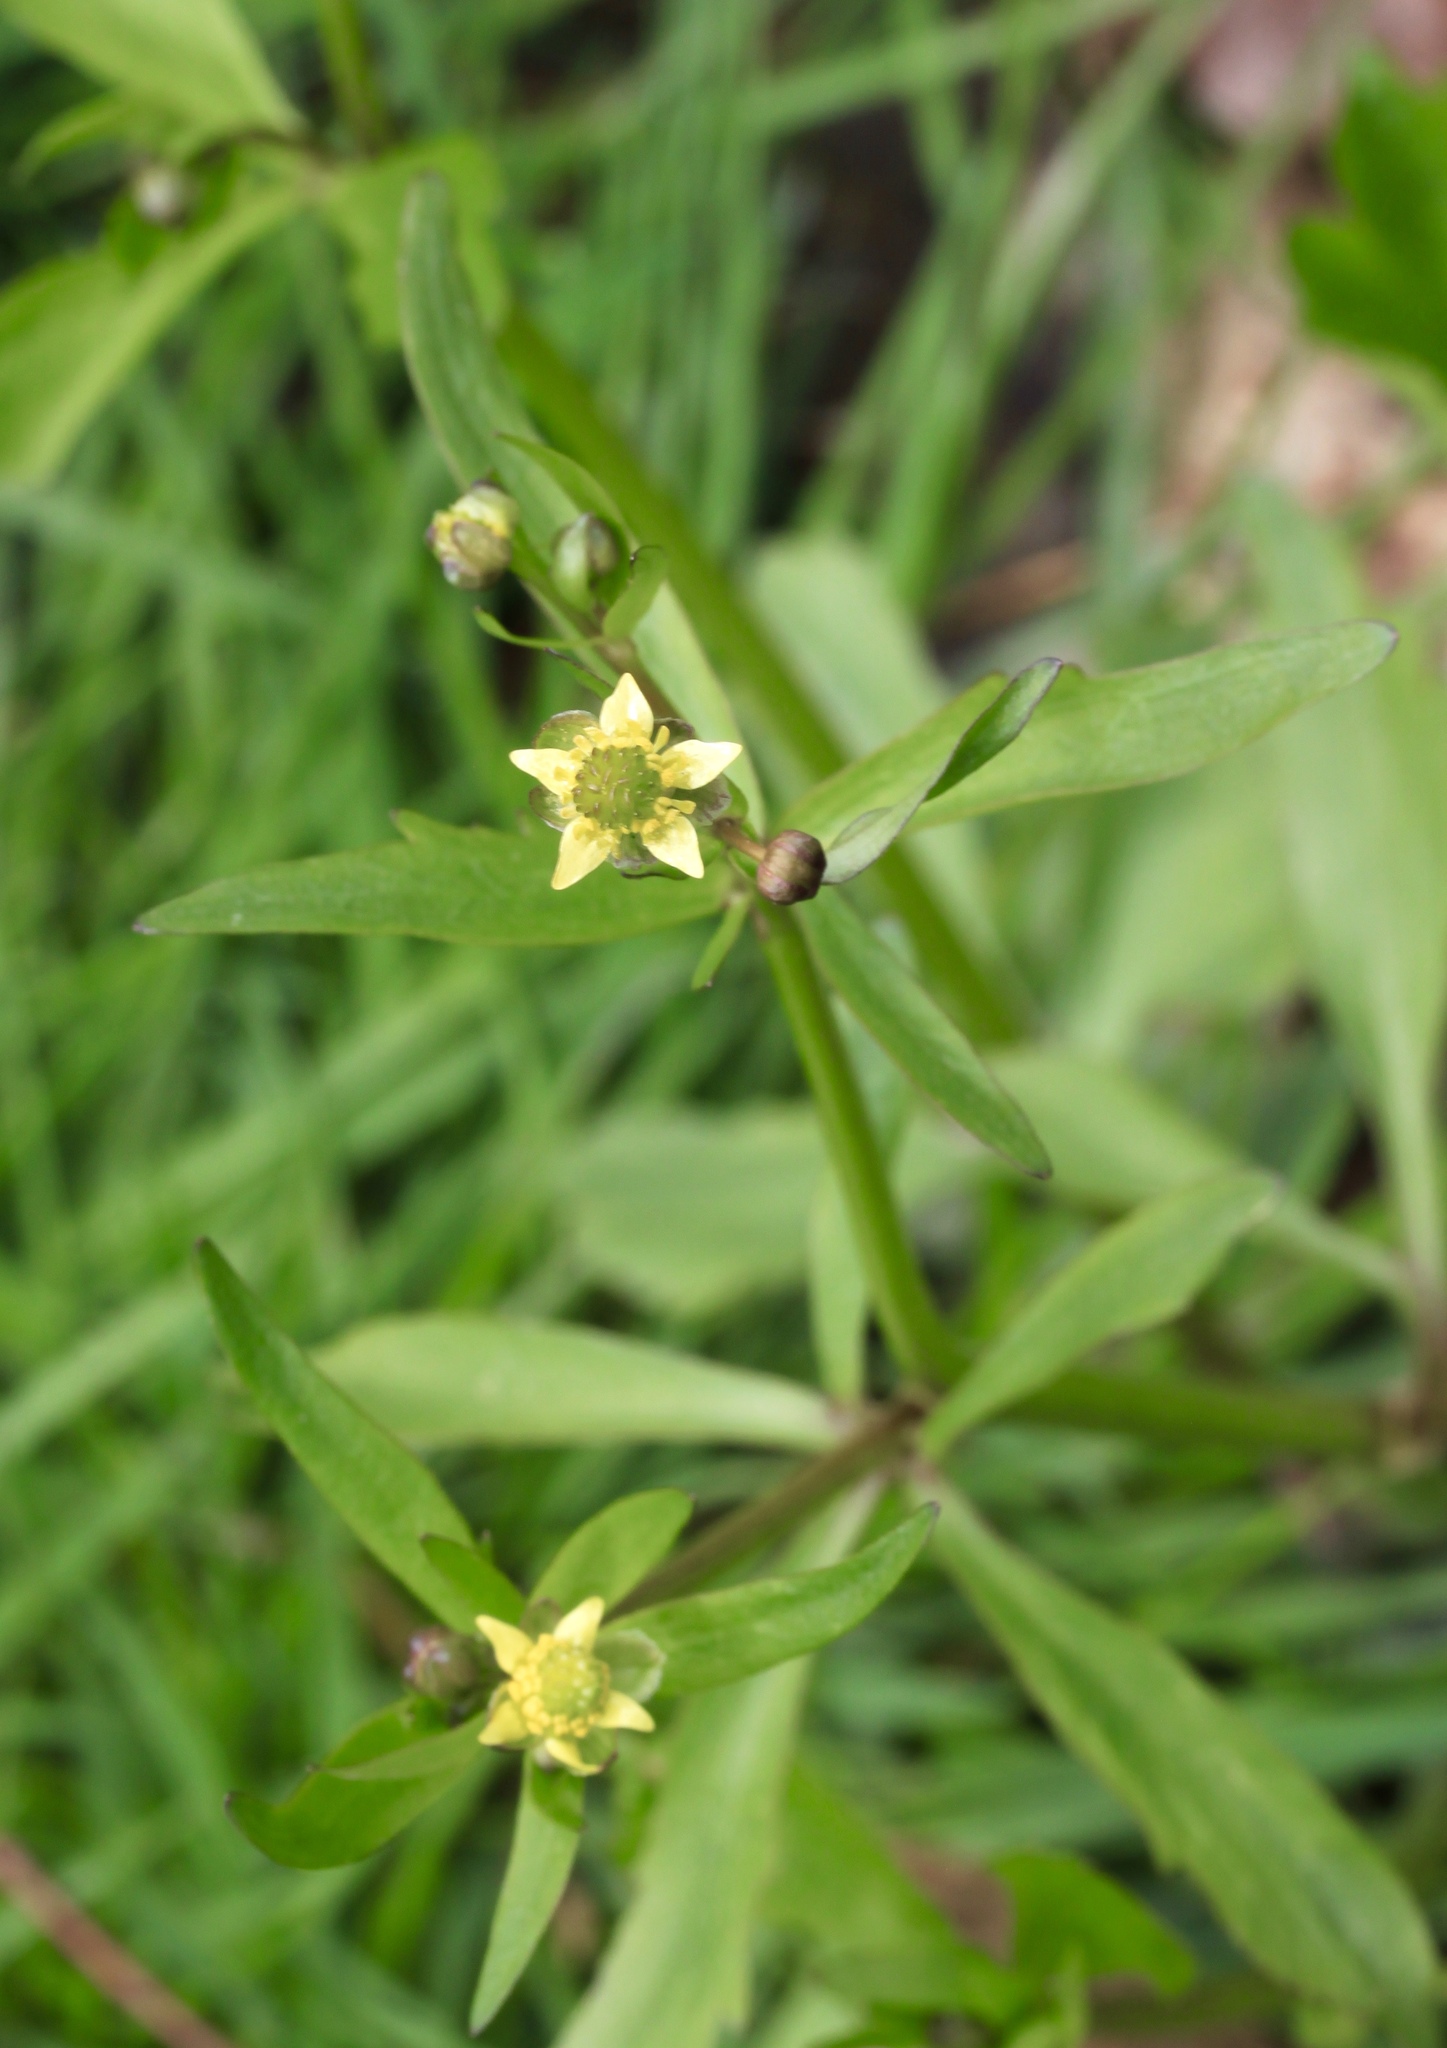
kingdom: Plantae
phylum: Tracheophyta
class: Magnoliopsida
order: Ranunculales
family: Ranunculaceae
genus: Ranunculus
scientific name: Ranunculus abortivus
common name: Early wood buttercup
